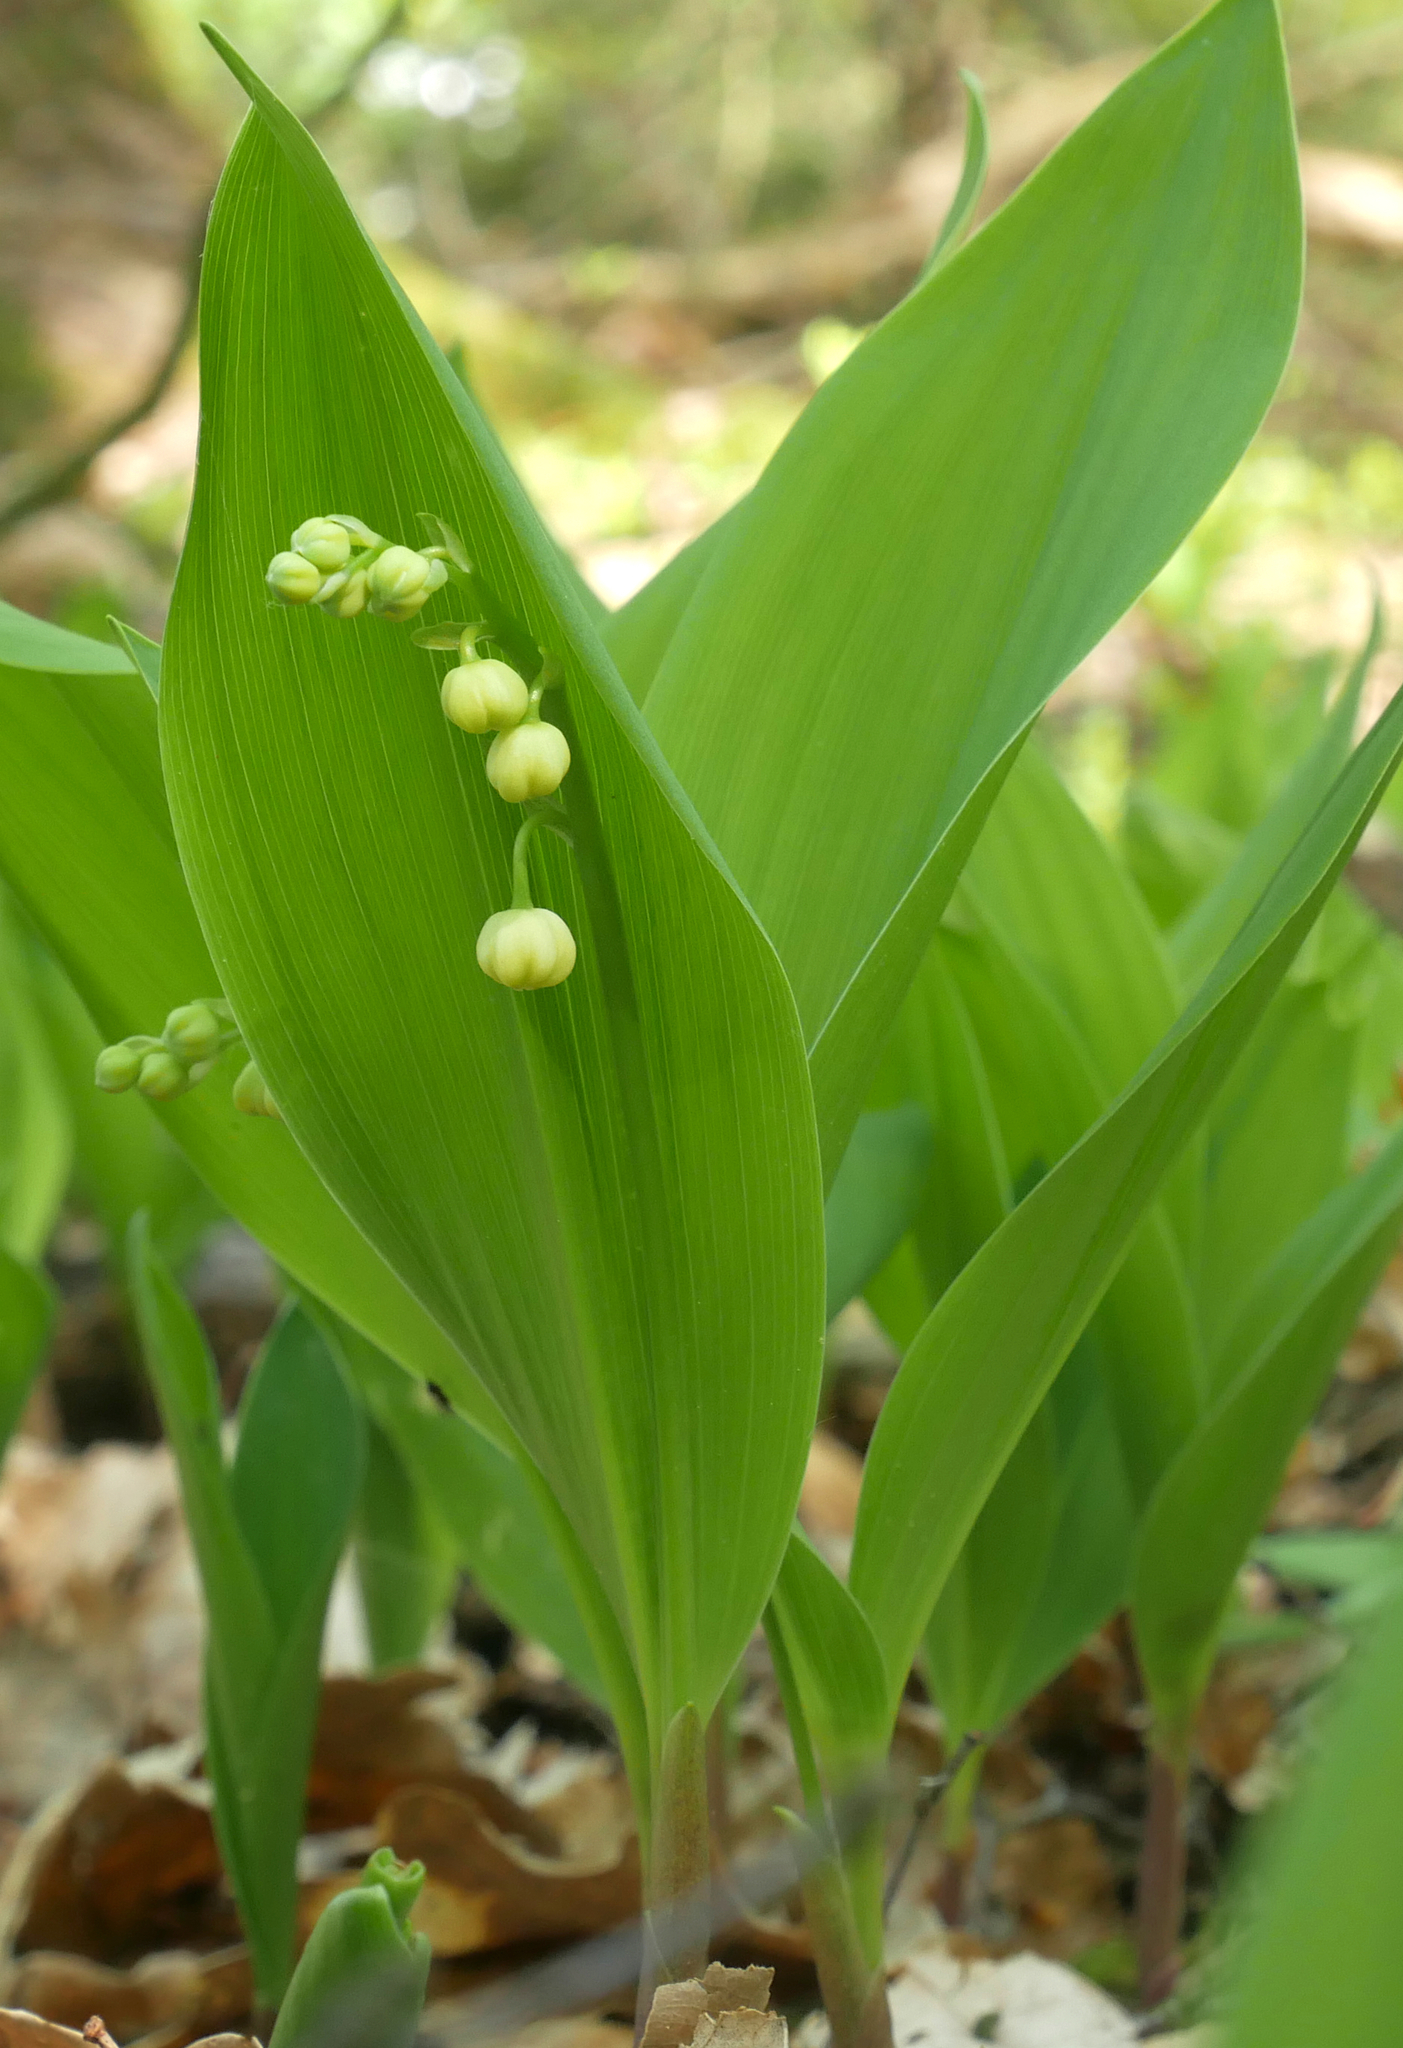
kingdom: Plantae
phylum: Tracheophyta
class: Liliopsida
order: Asparagales
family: Asparagaceae
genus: Convallaria
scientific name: Convallaria majalis
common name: Lily-of-the-valley
